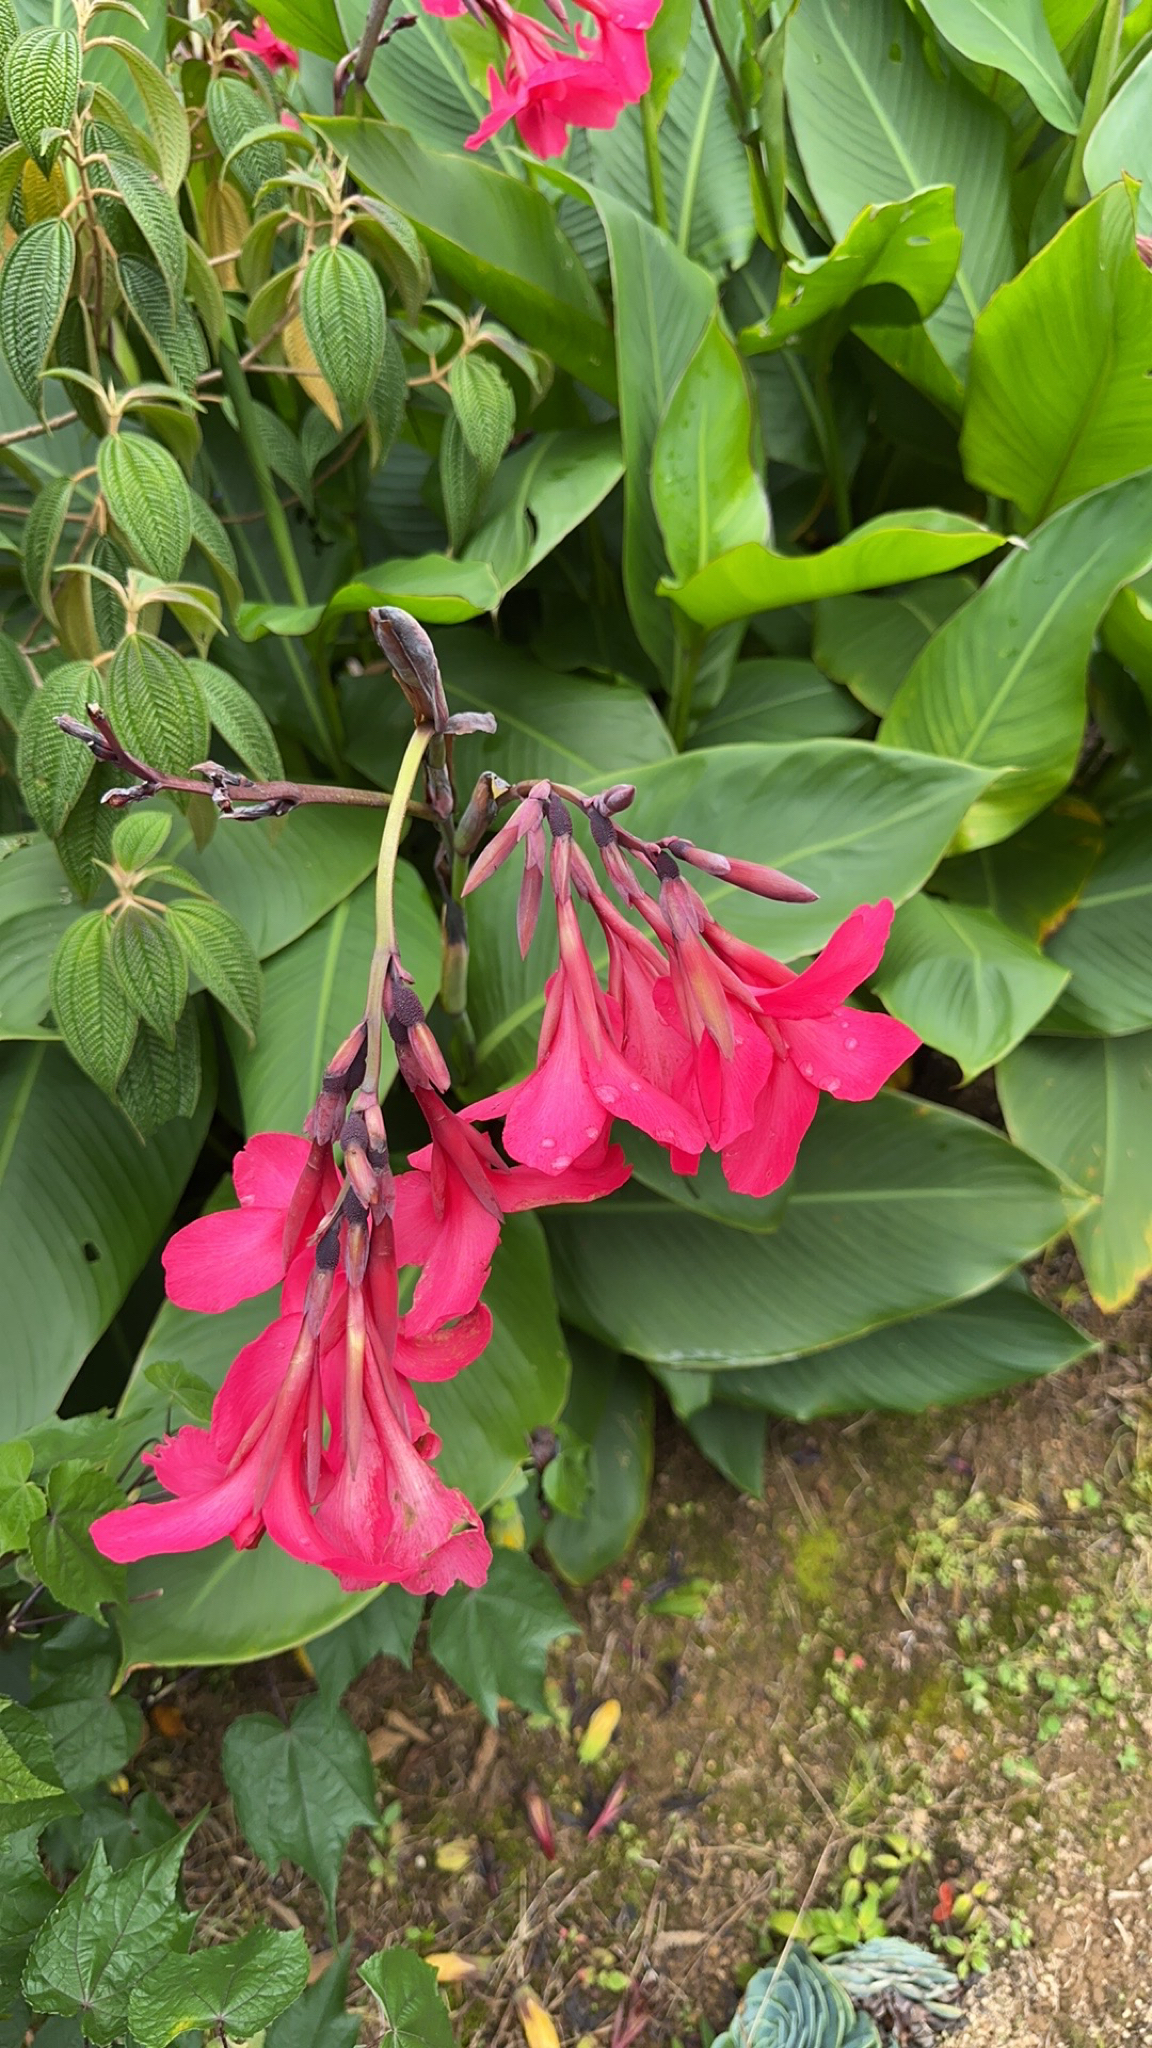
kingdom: Plantae
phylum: Tracheophyta
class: Liliopsida
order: Zingiberales
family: Cannaceae
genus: Canna
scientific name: Canna hybrida
